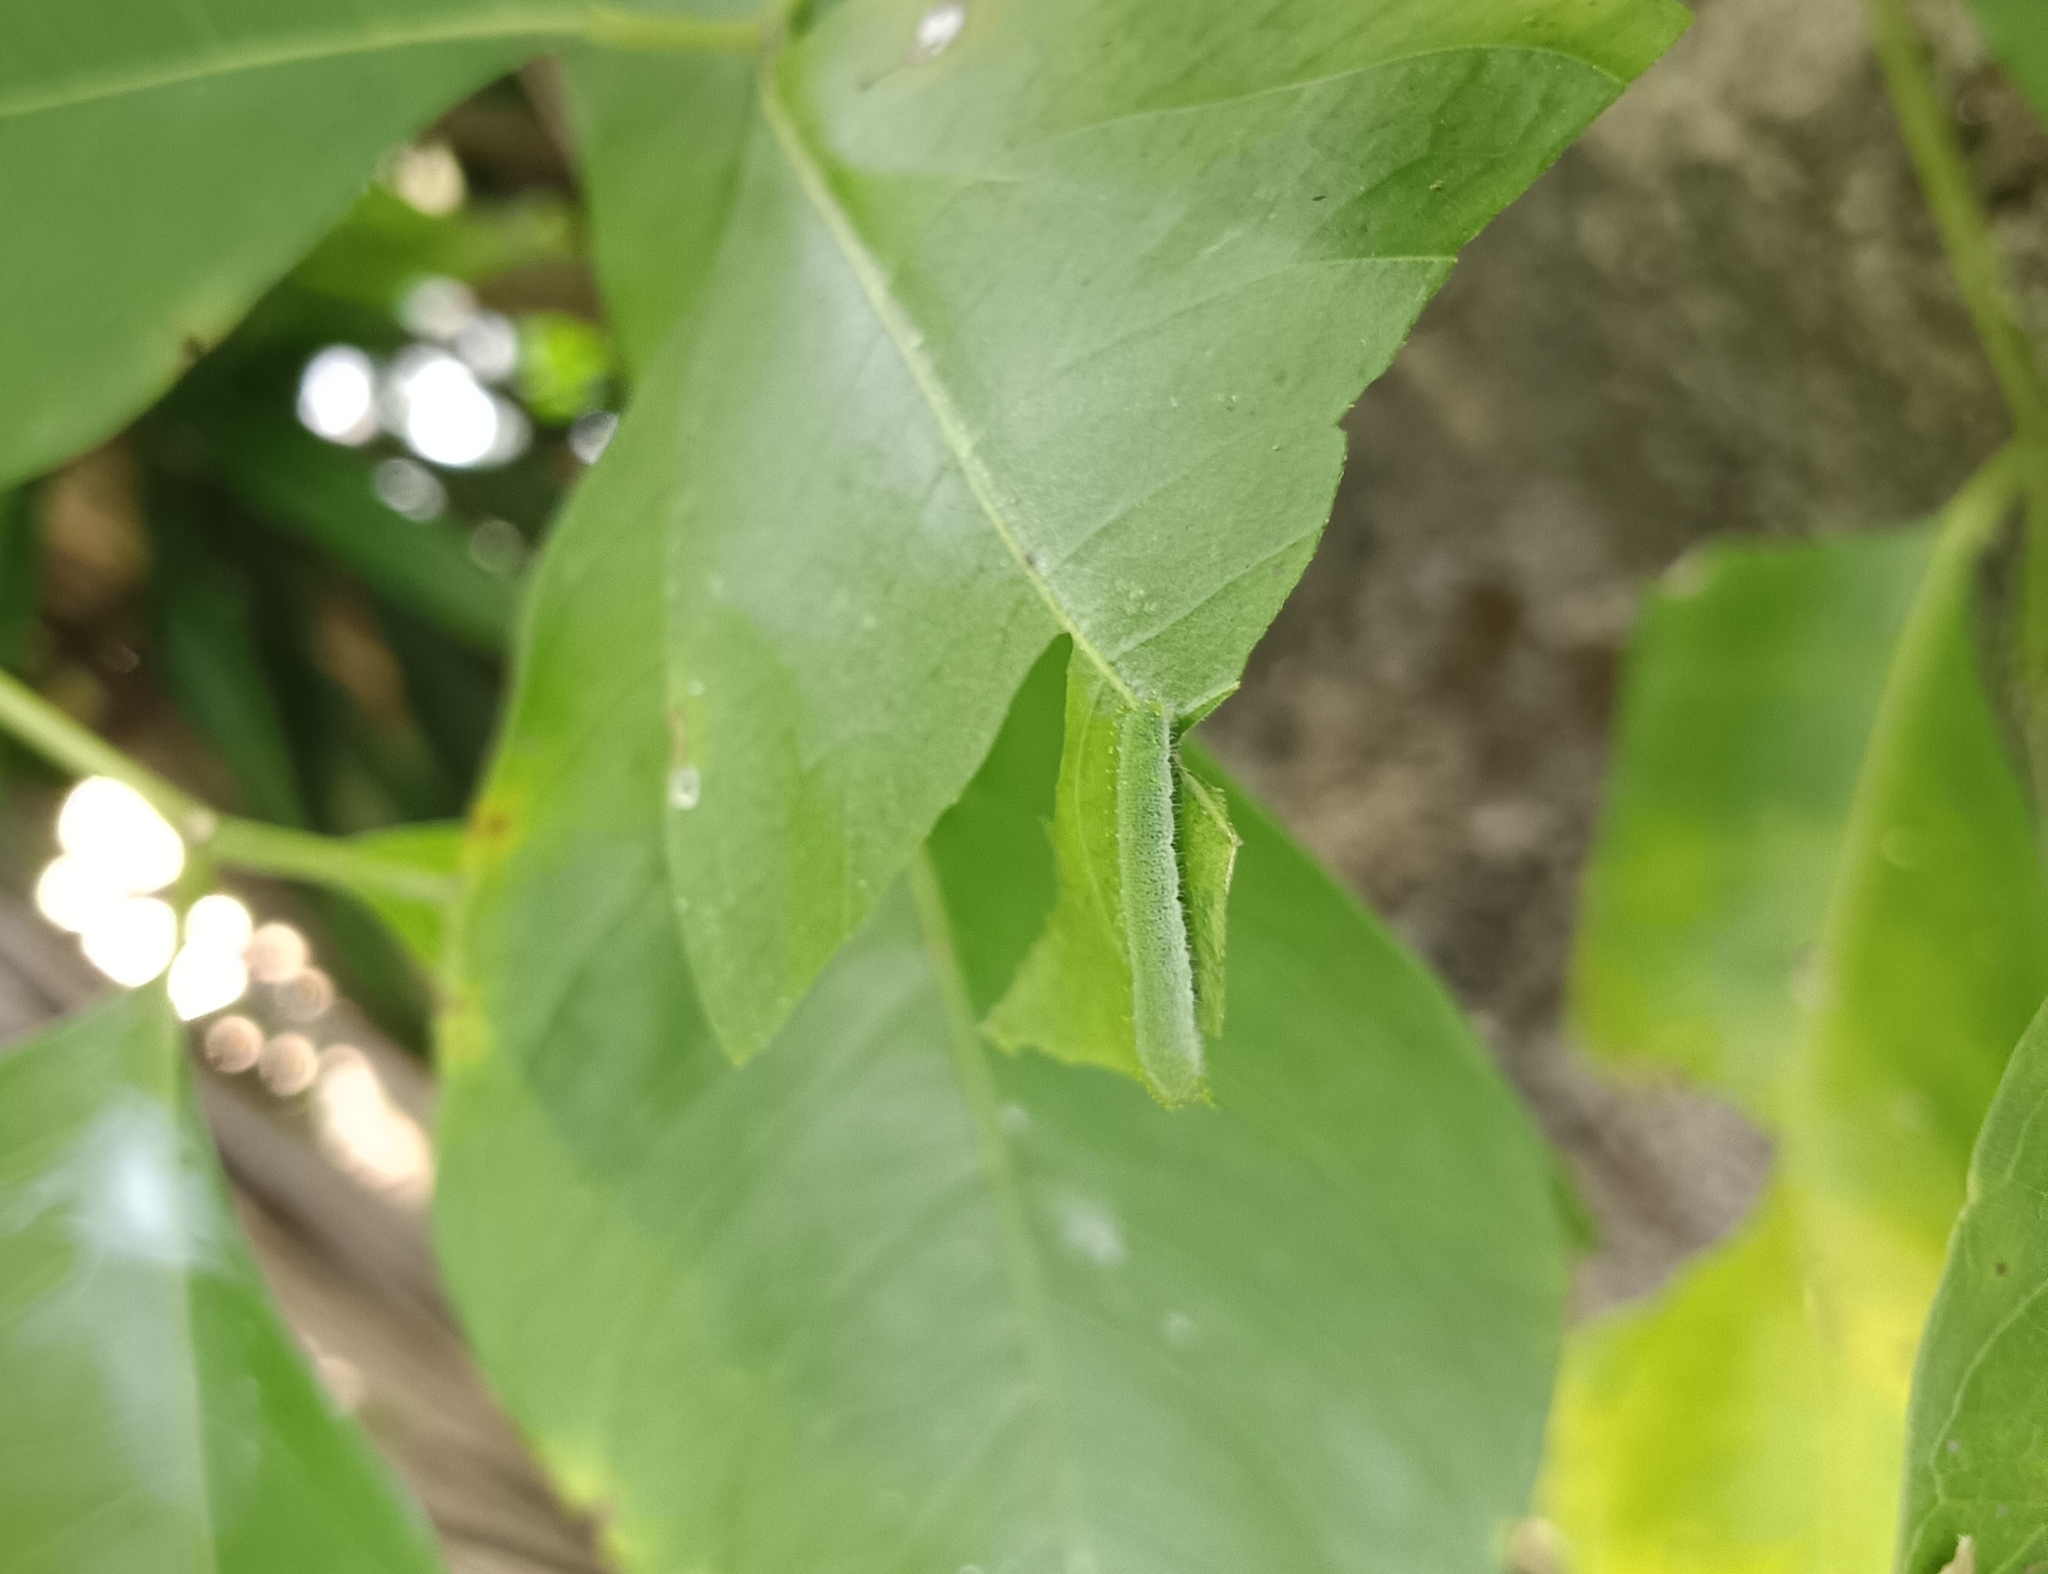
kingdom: Animalia
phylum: Arthropoda
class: Insecta
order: Lepidoptera
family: Pieridae
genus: Hebomoia
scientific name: Hebomoia glaucippe
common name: Great orange tip
